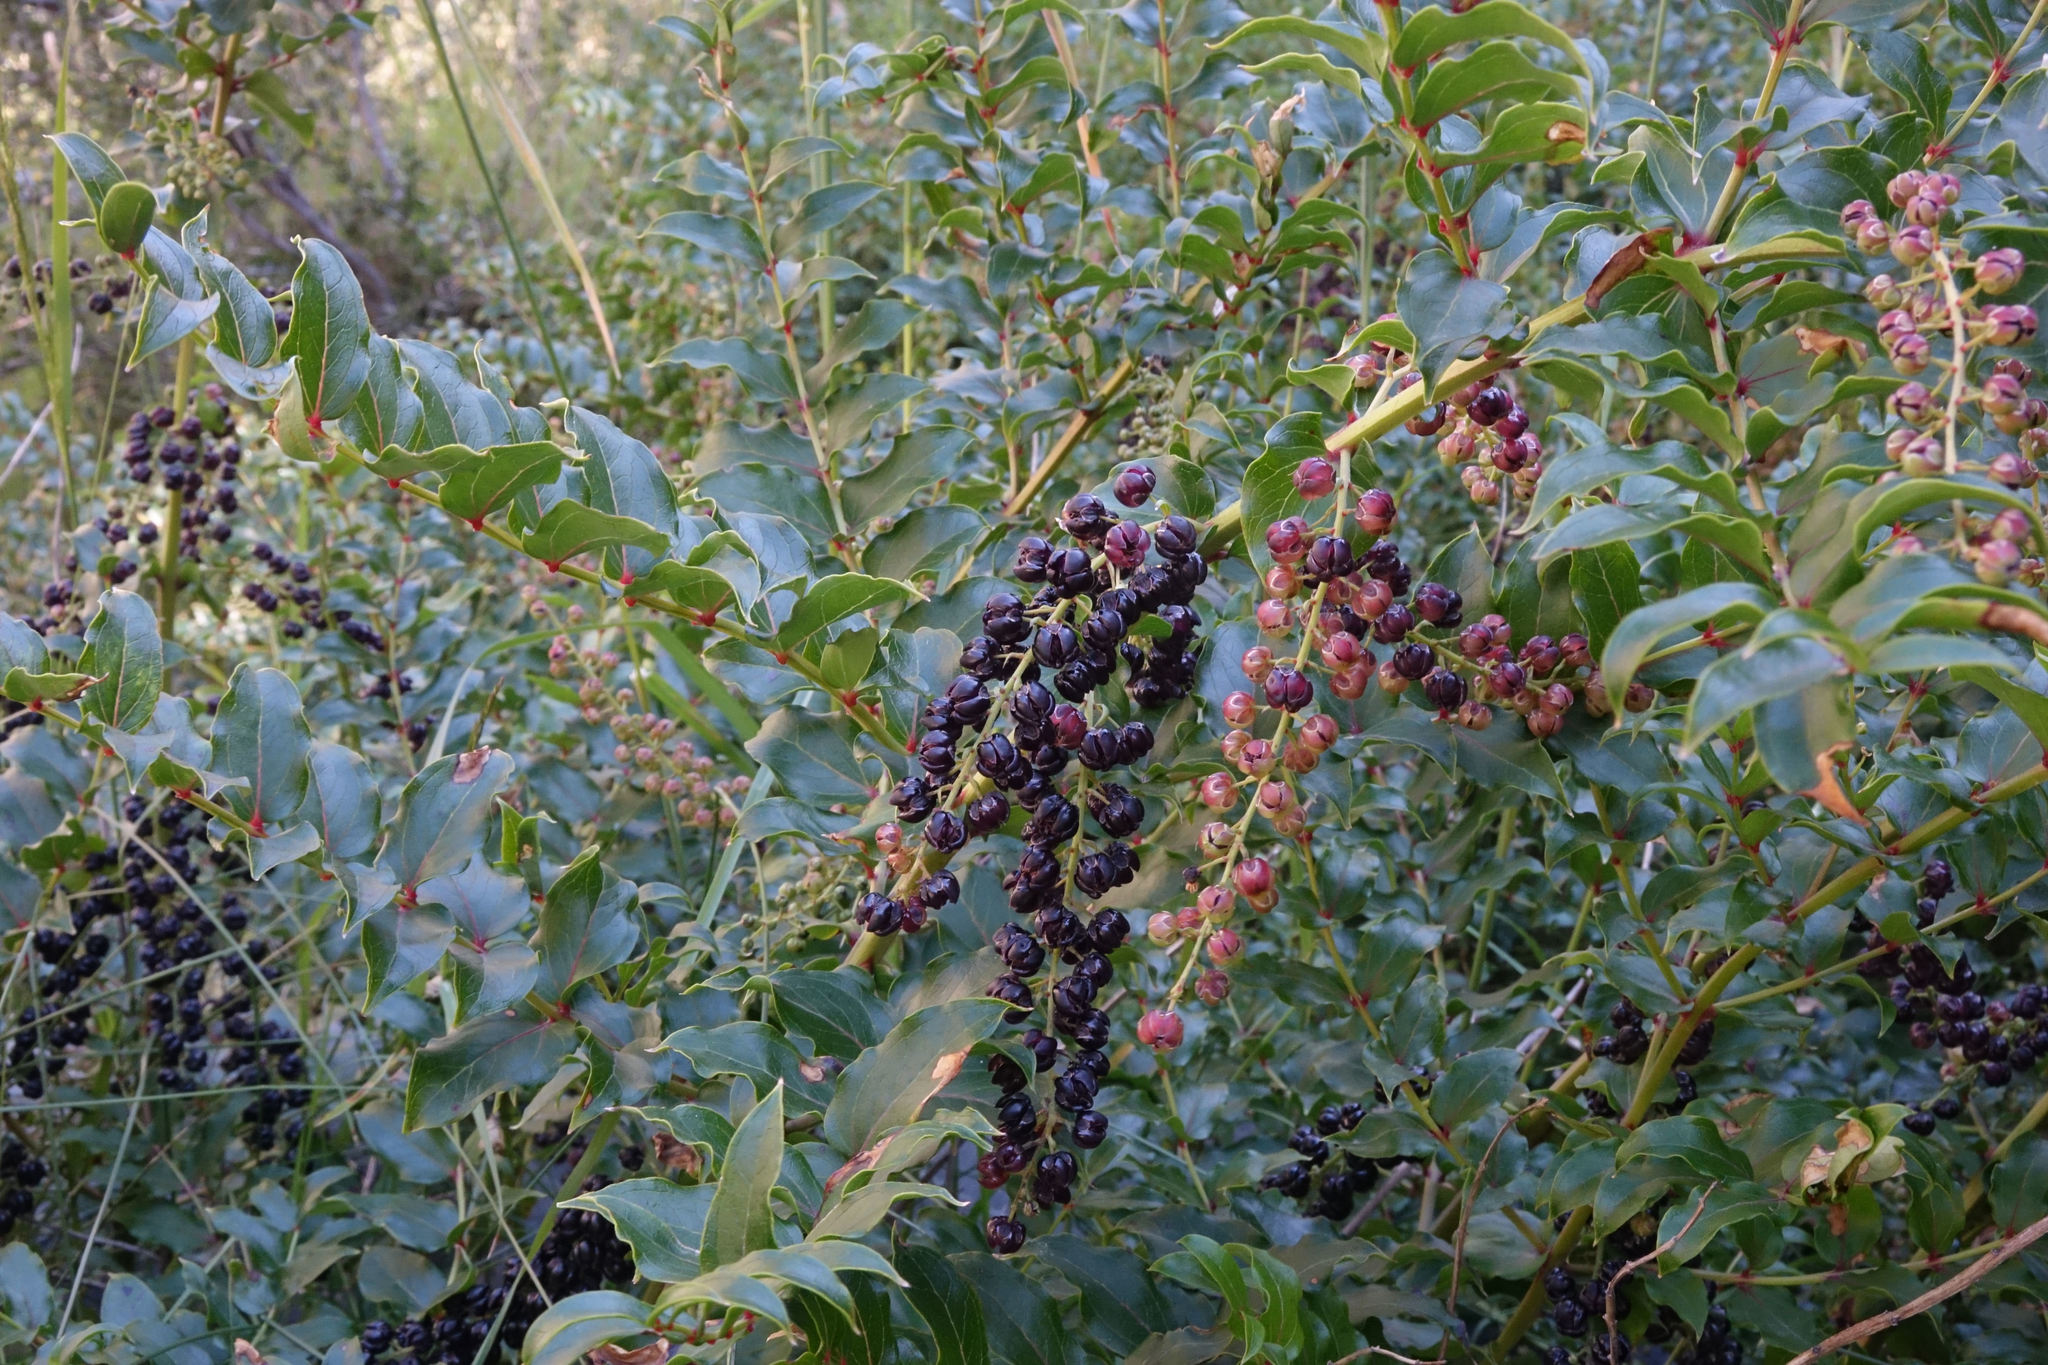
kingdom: Plantae
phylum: Tracheophyta
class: Magnoliopsida
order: Cucurbitales
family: Coriariaceae
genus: Coriaria
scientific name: Coriaria sarmentosa
